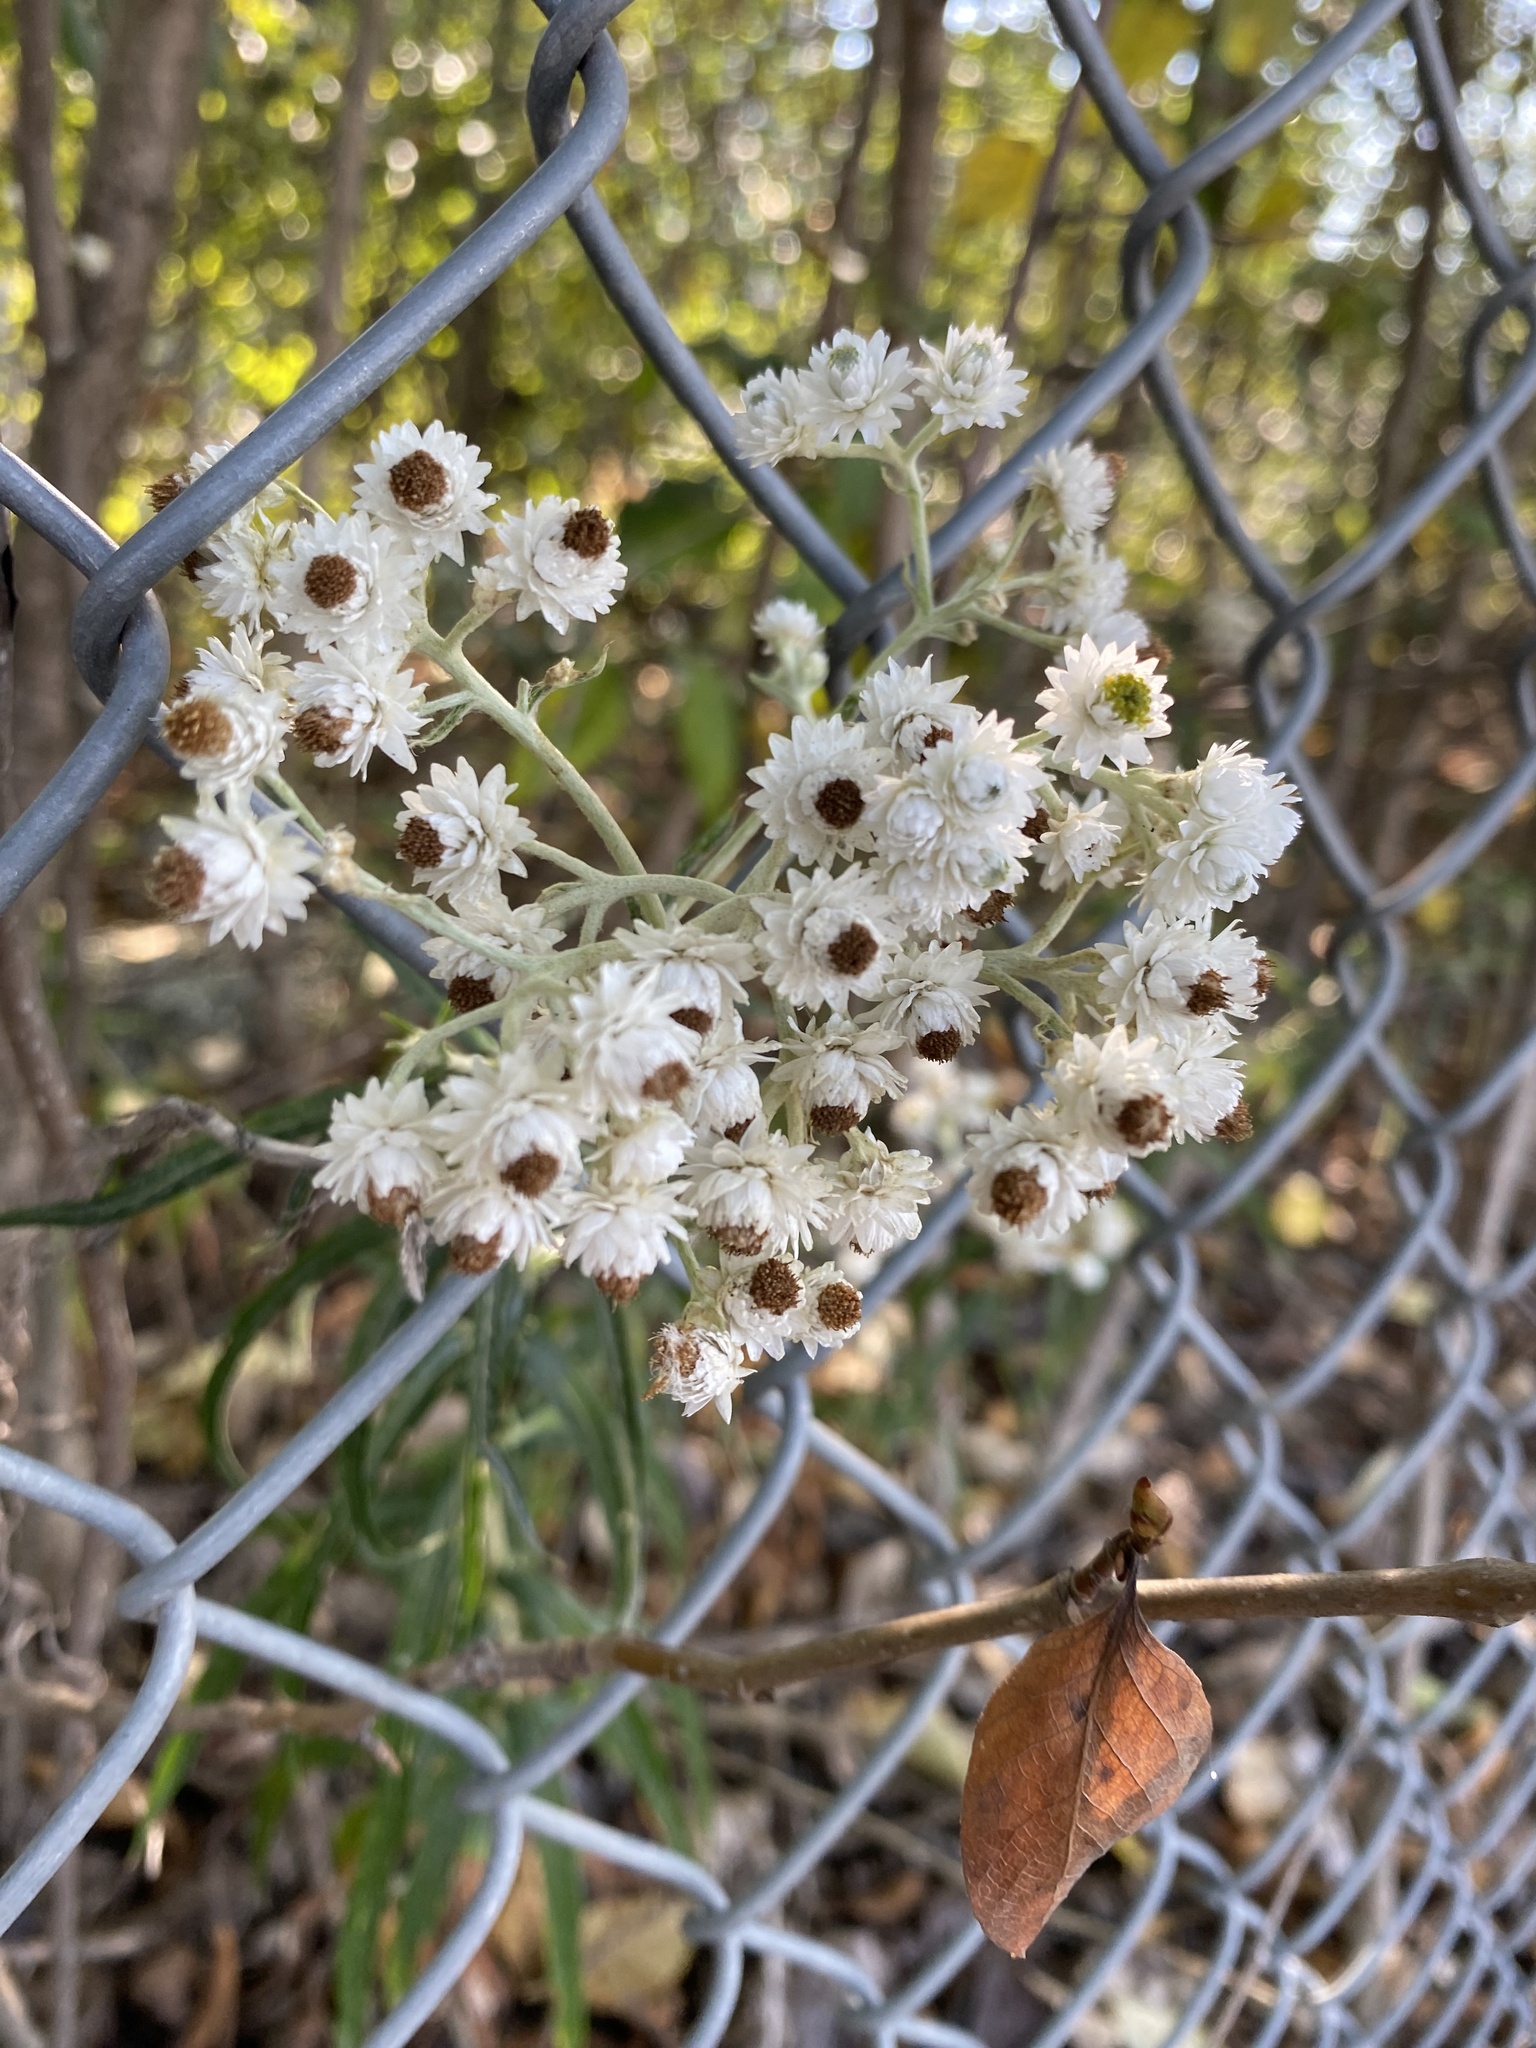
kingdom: Plantae
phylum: Tracheophyta
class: Magnoliopsida
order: Asterales
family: Asteraceae
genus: Anaphalis
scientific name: Anaphalis margaritacea
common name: Pearly everlasting
